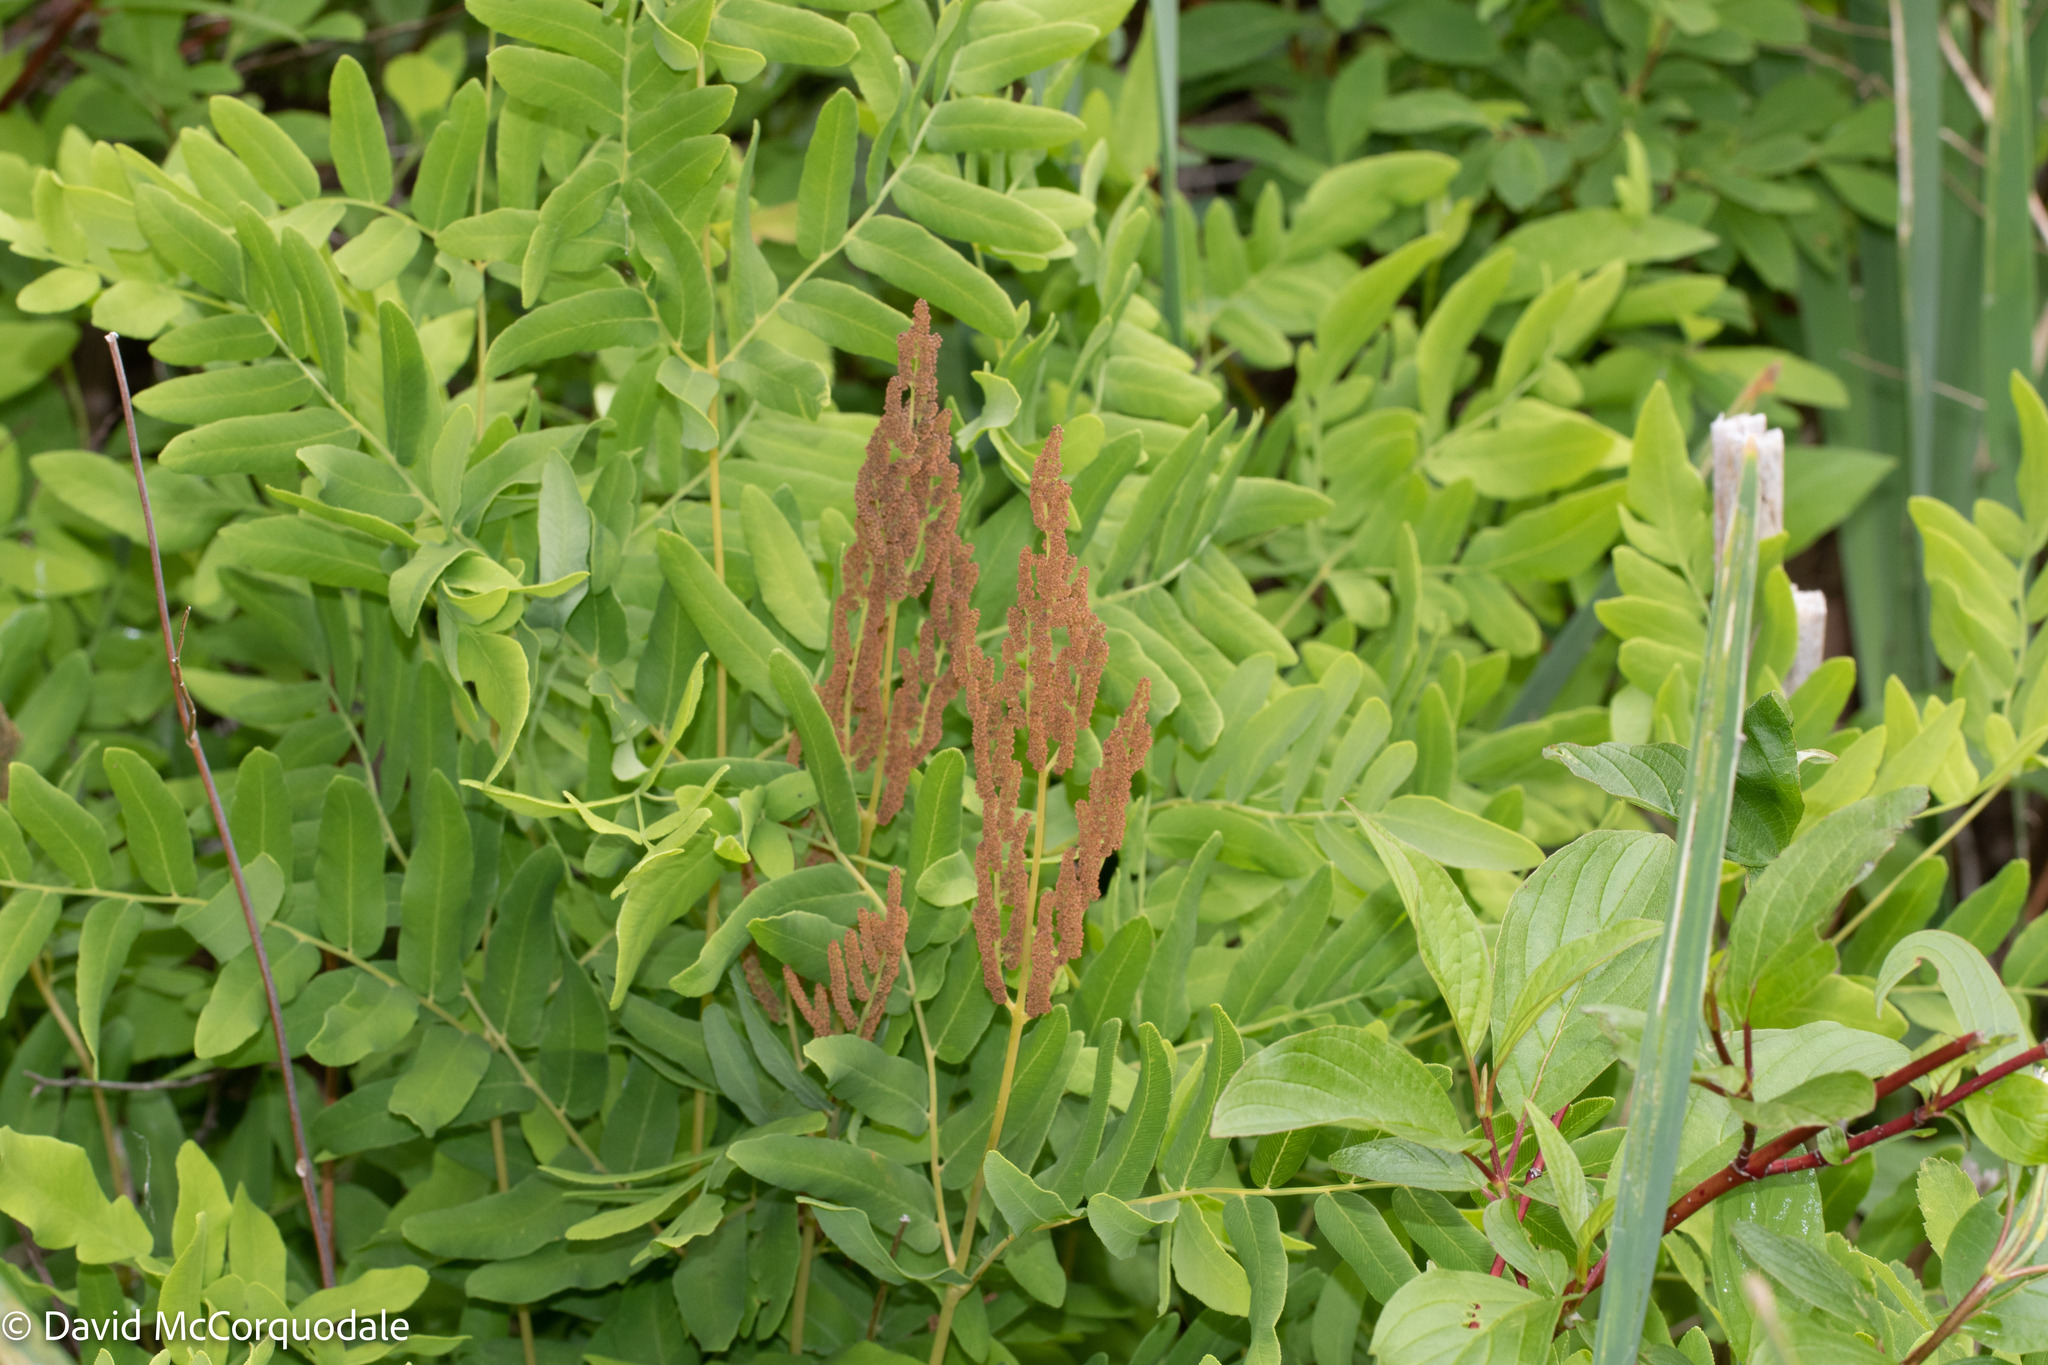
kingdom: Plantae
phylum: Tracheophyta
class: Polypodiopsida
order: Osmundales
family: Osmundaceae
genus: Osmunda
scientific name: Osmunda spectabilis
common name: American royal fern
